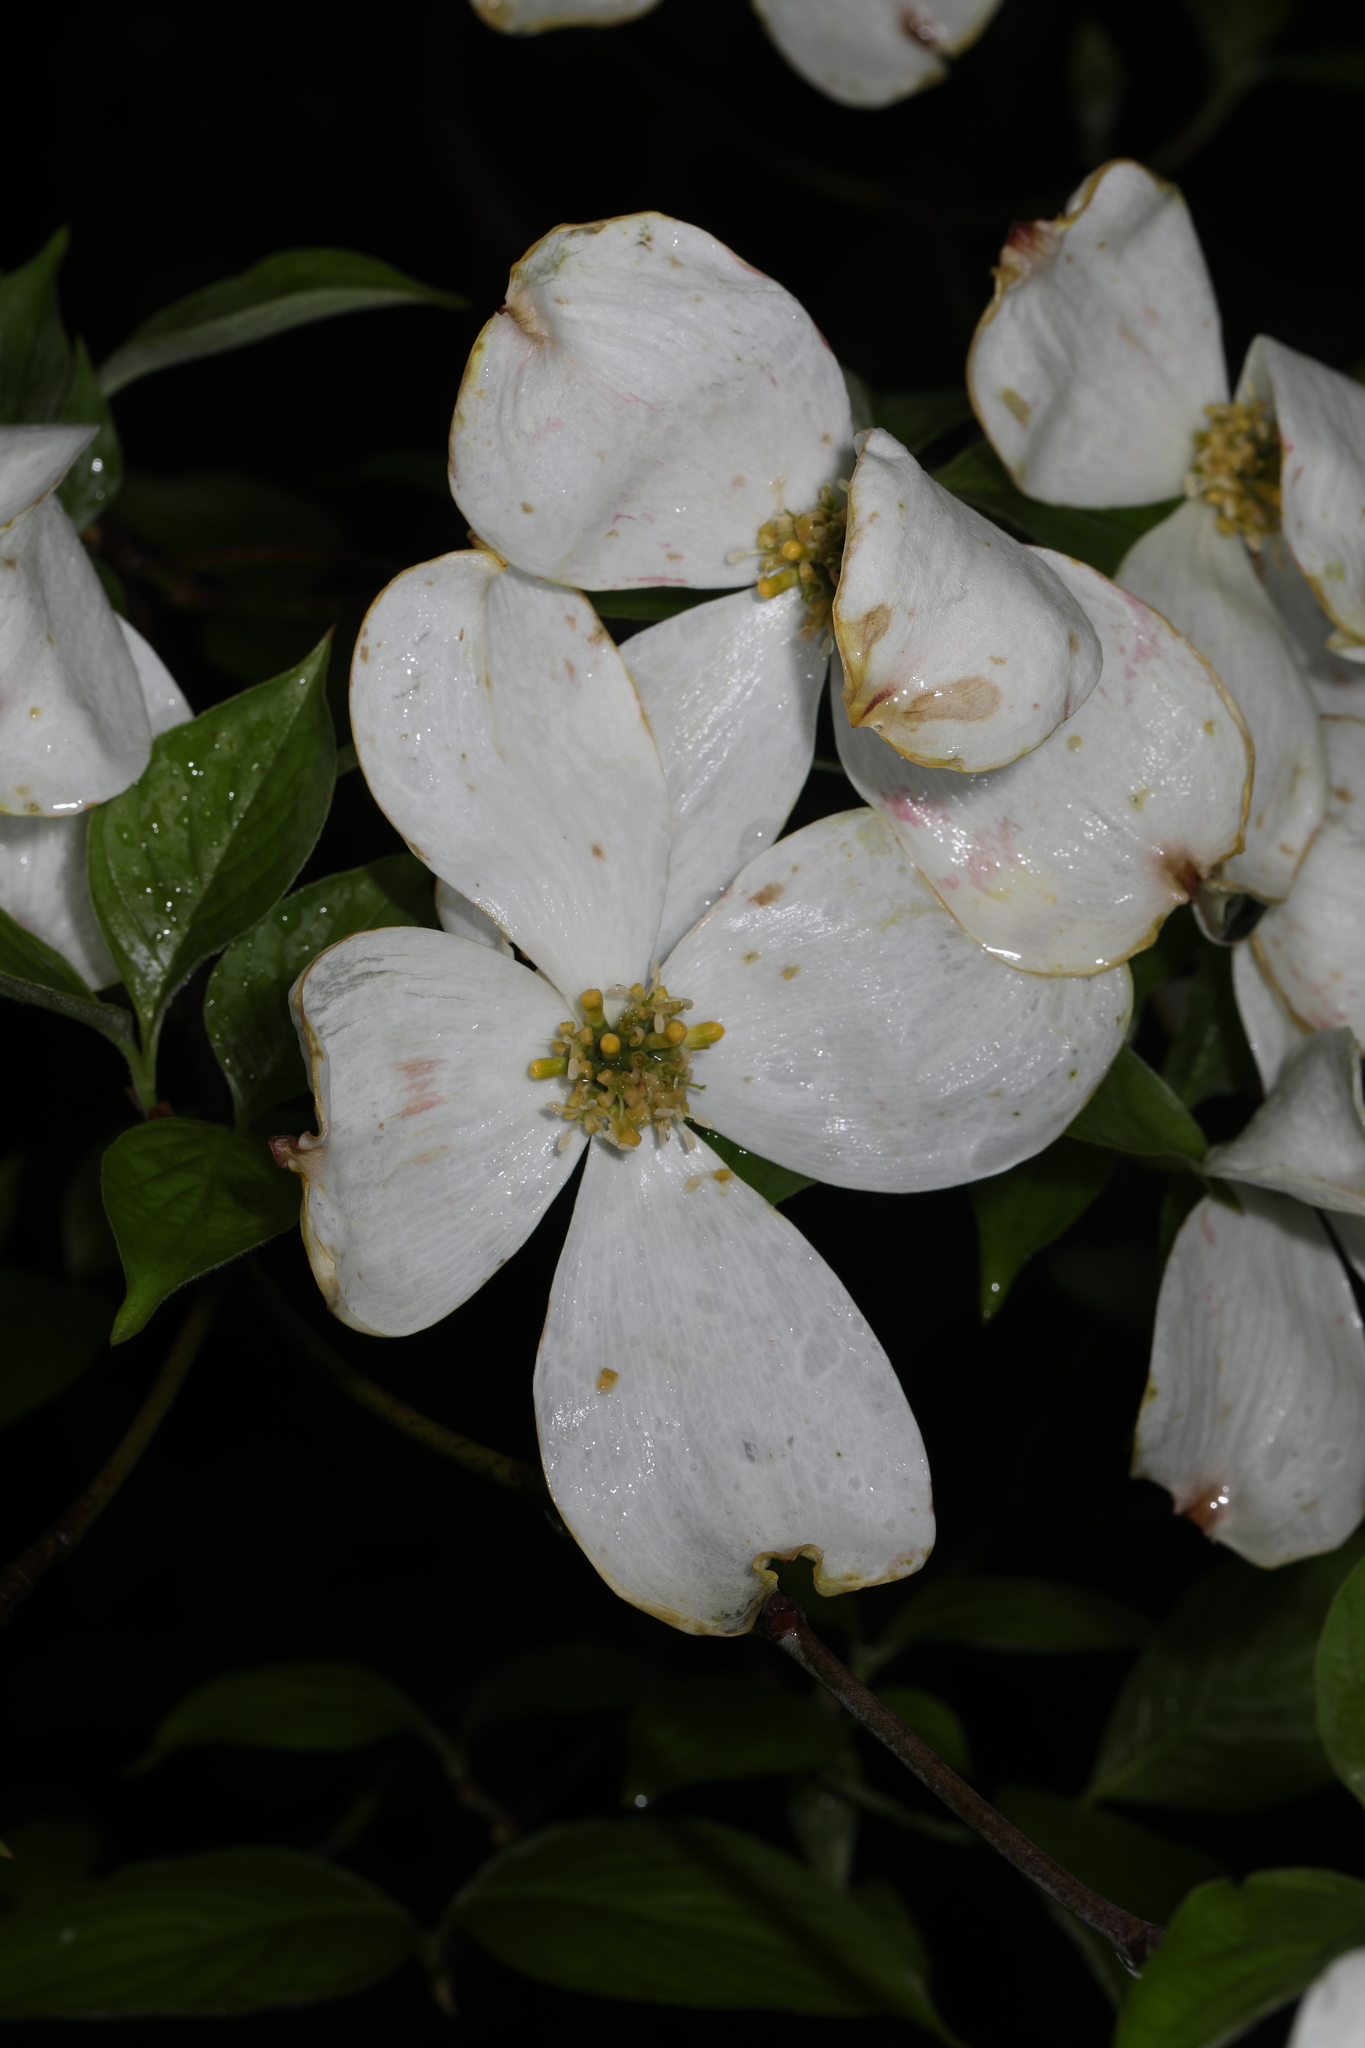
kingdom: Plantae
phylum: Tracheophyta
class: Magnoliopsida
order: Cornales
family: Cornaceae
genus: Cornus
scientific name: Cornus florida
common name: Flowering dogwood
